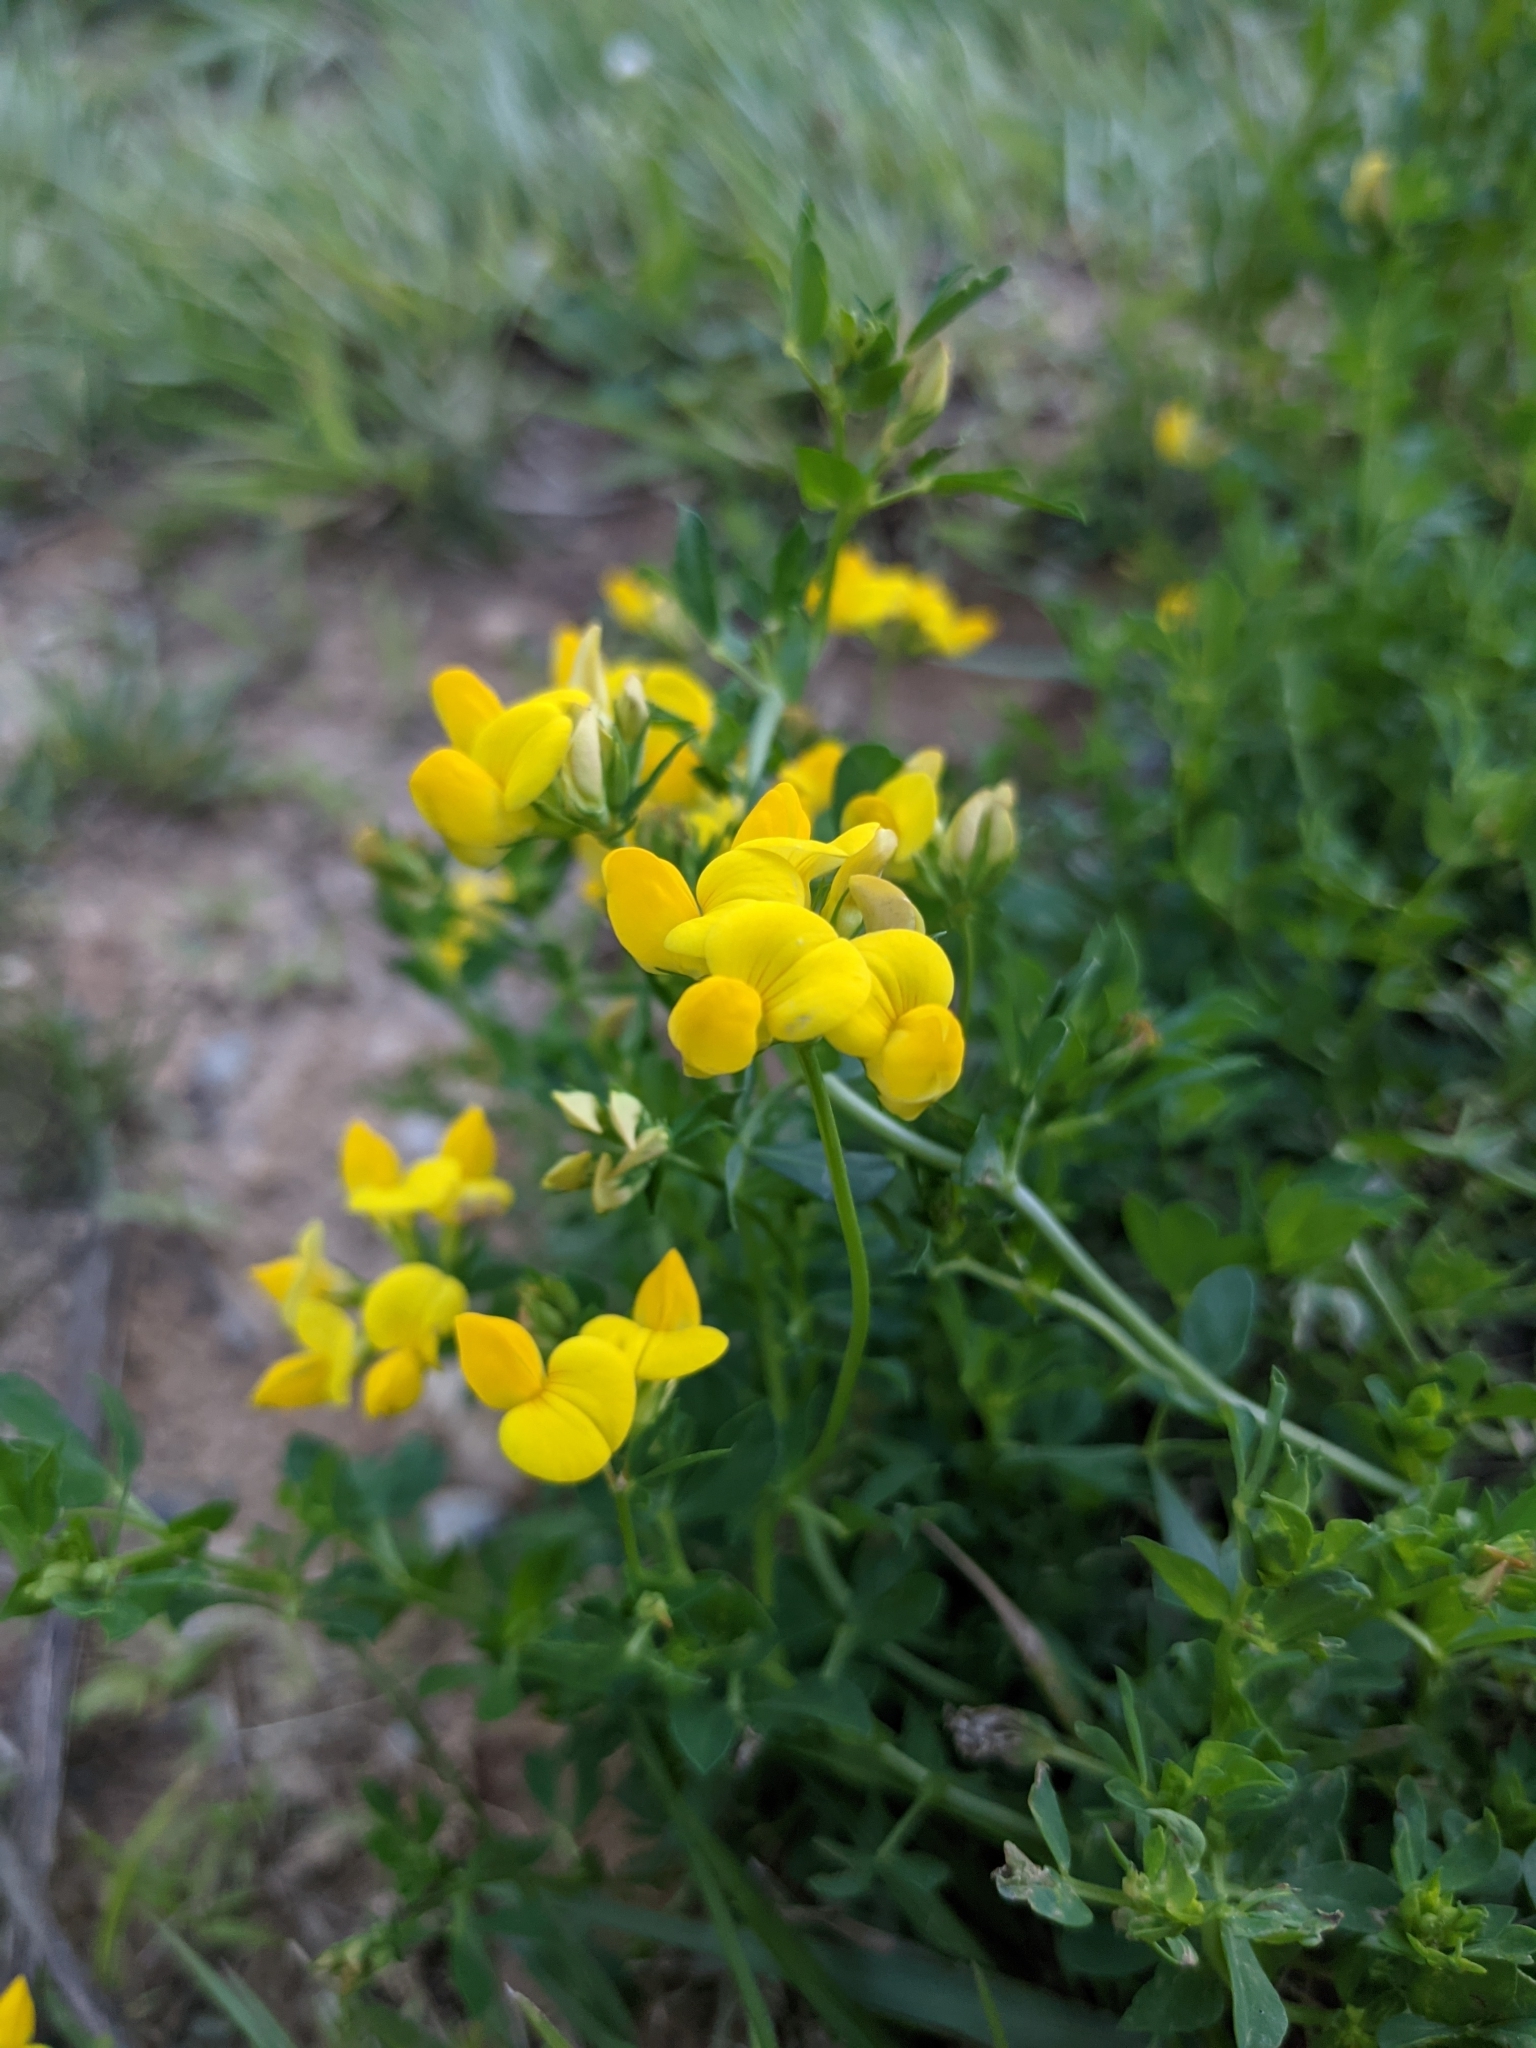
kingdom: Plantae
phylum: Tracheophyta
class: Magnoliopsida
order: Fabales
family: Fabaceae
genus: Lotus
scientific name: Lotus corniculatus
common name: Common bird's-foot-trefoil
